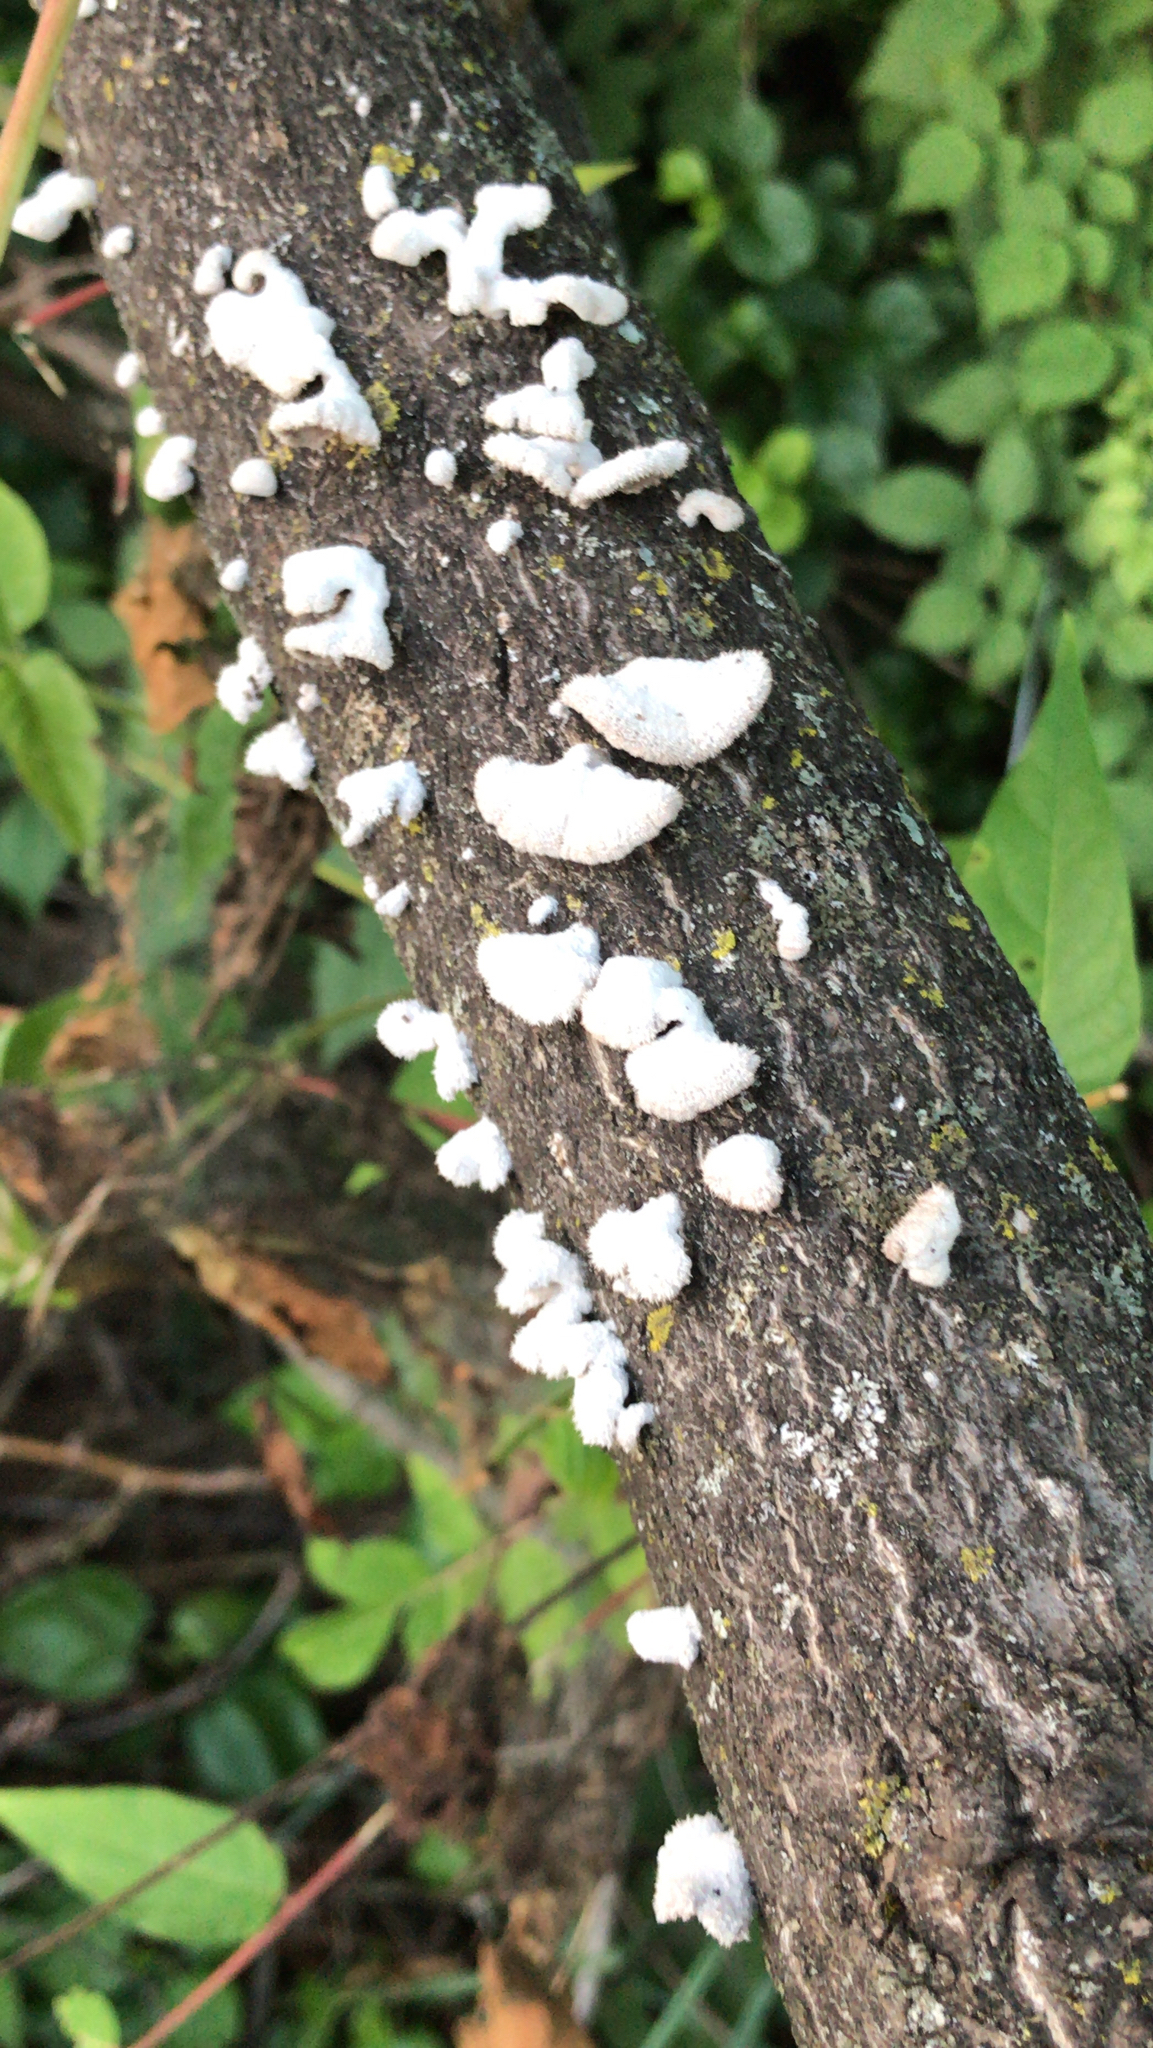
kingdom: Fungi
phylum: Basidiomycota
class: Agaricomycetes
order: Agaricales
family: Schizophyllaceae
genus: Schizophyllum
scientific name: Schizophyllum commune
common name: Common porecrust
